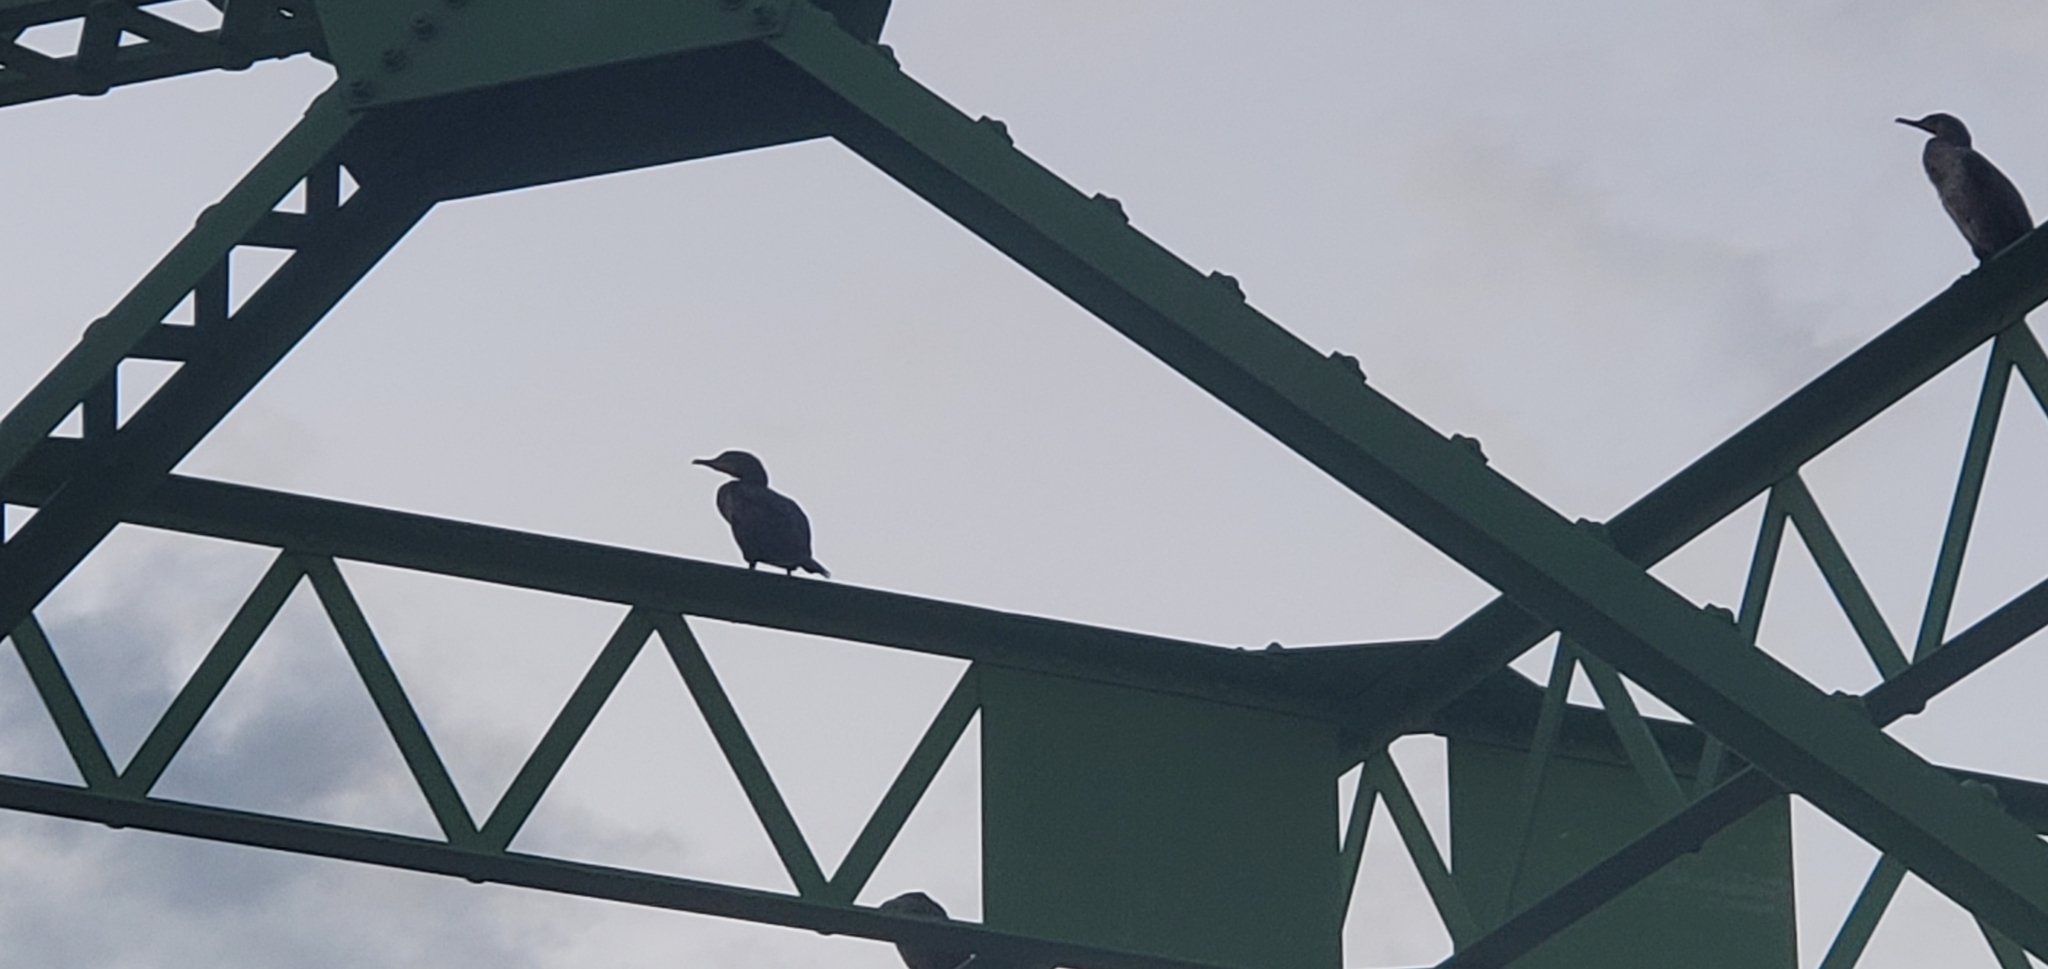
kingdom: Animalia
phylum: Chordata
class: Aves
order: Suliformes
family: Phalacrocoracidae
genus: Phalacrocorax
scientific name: Phalacrocorax auritus
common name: Double-crested cormorant
